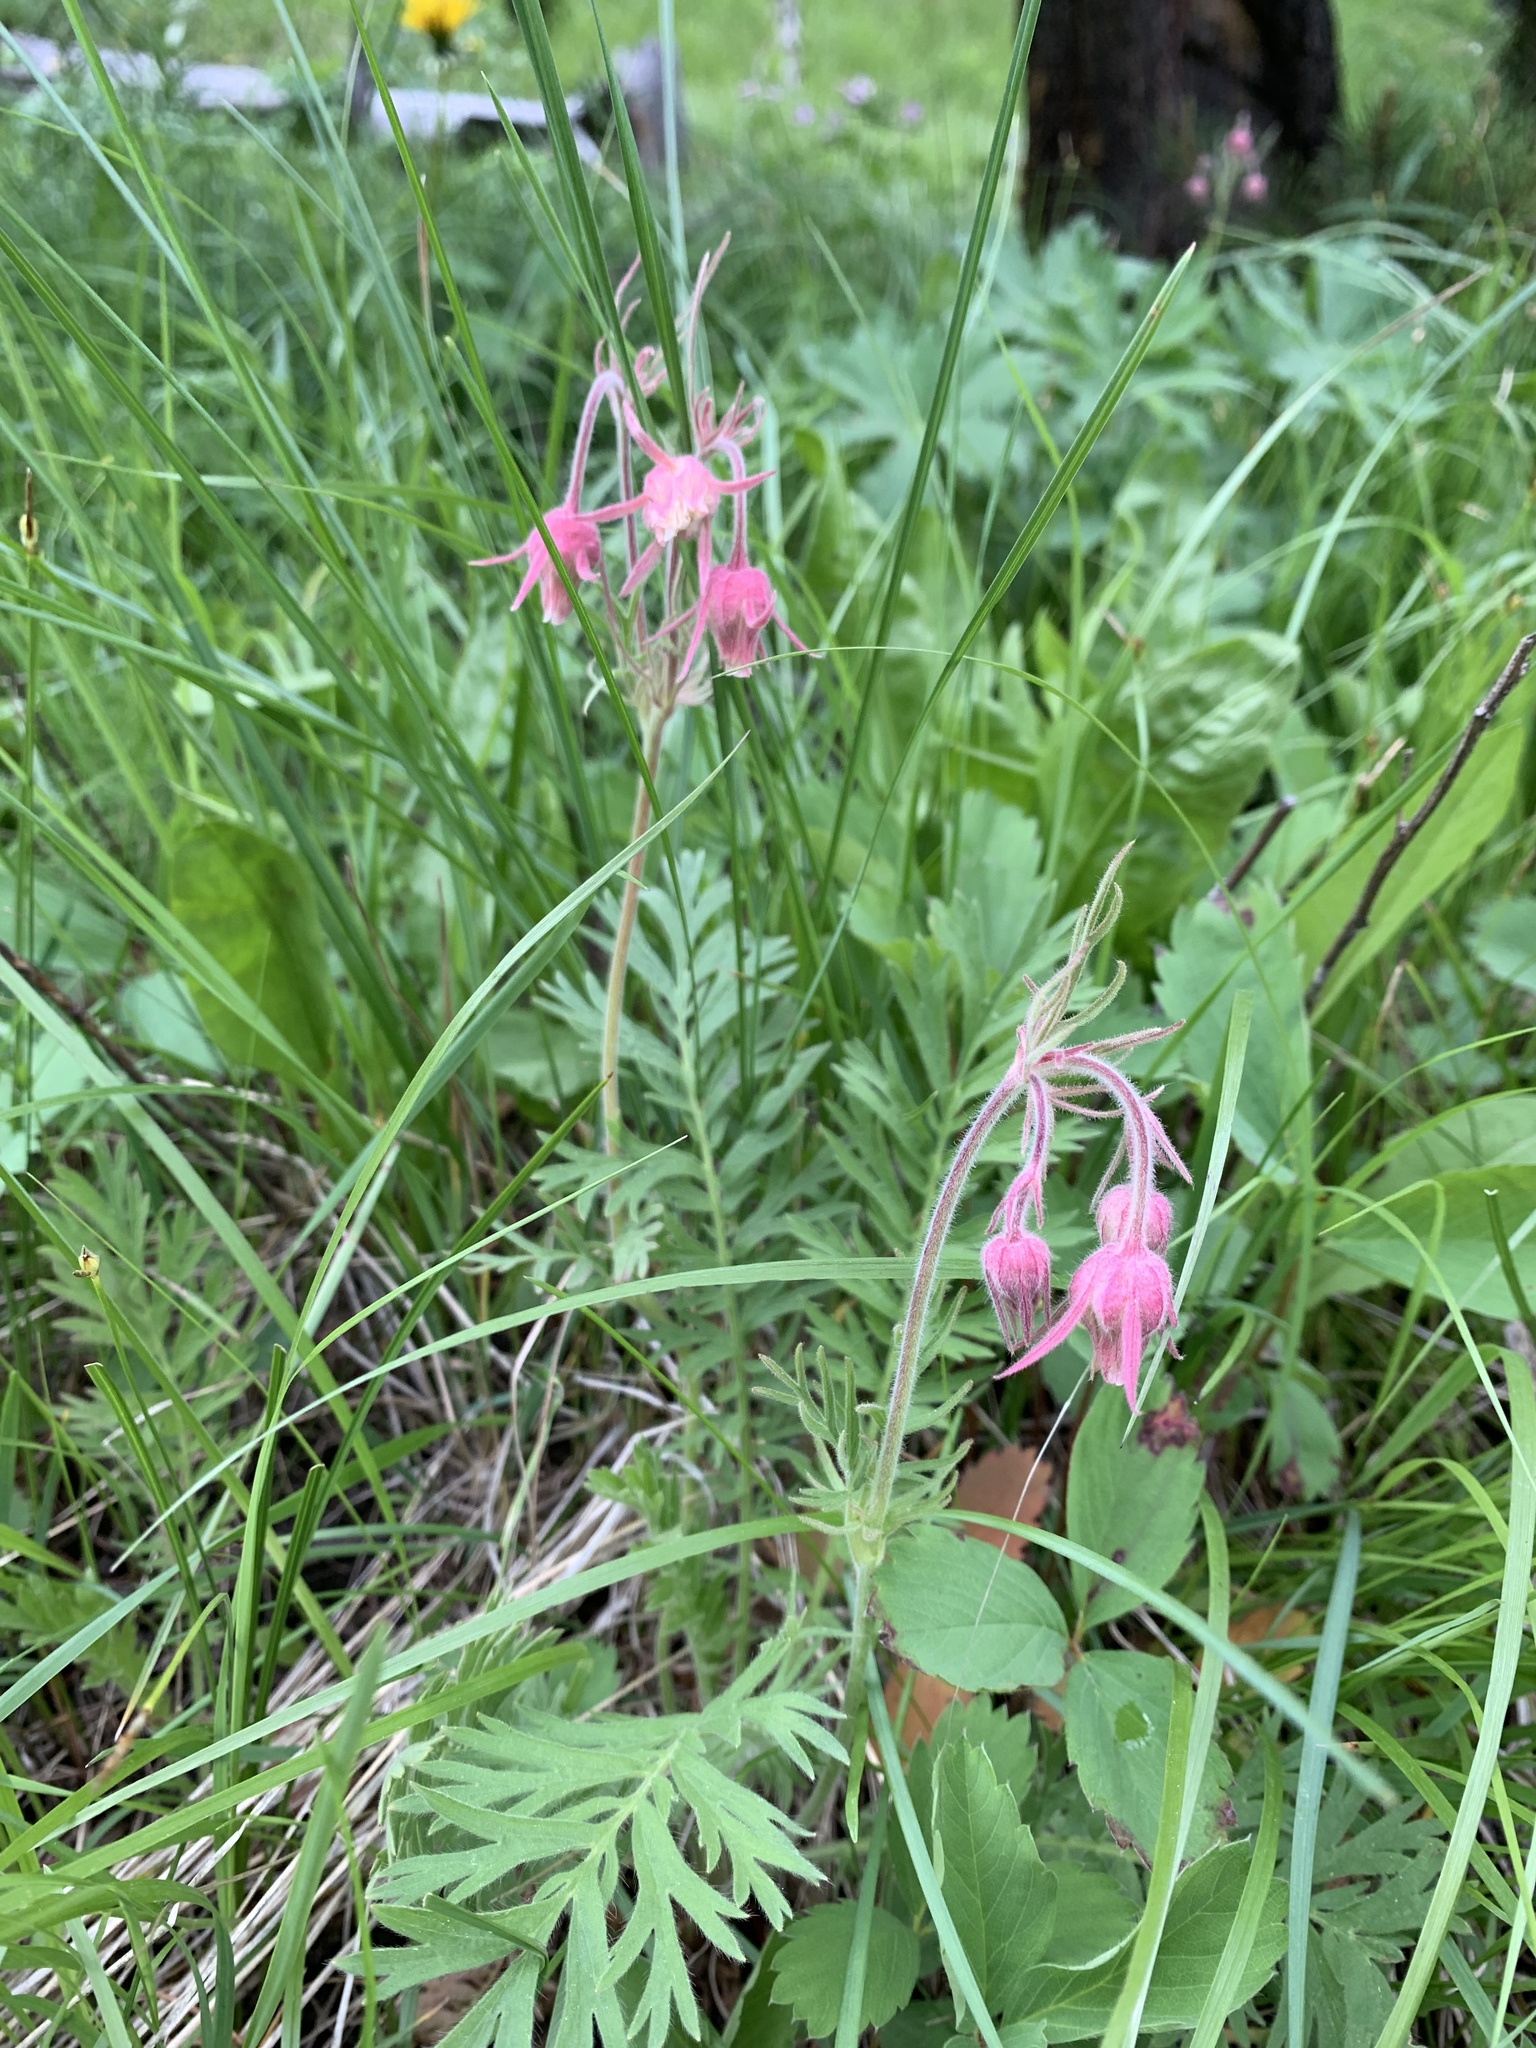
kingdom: Plantae
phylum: Tracheophyta
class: Magnoliopsida
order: Rosales
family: Rosaceae
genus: Geum
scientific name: Geum triflorum
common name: Old man's whiskers
